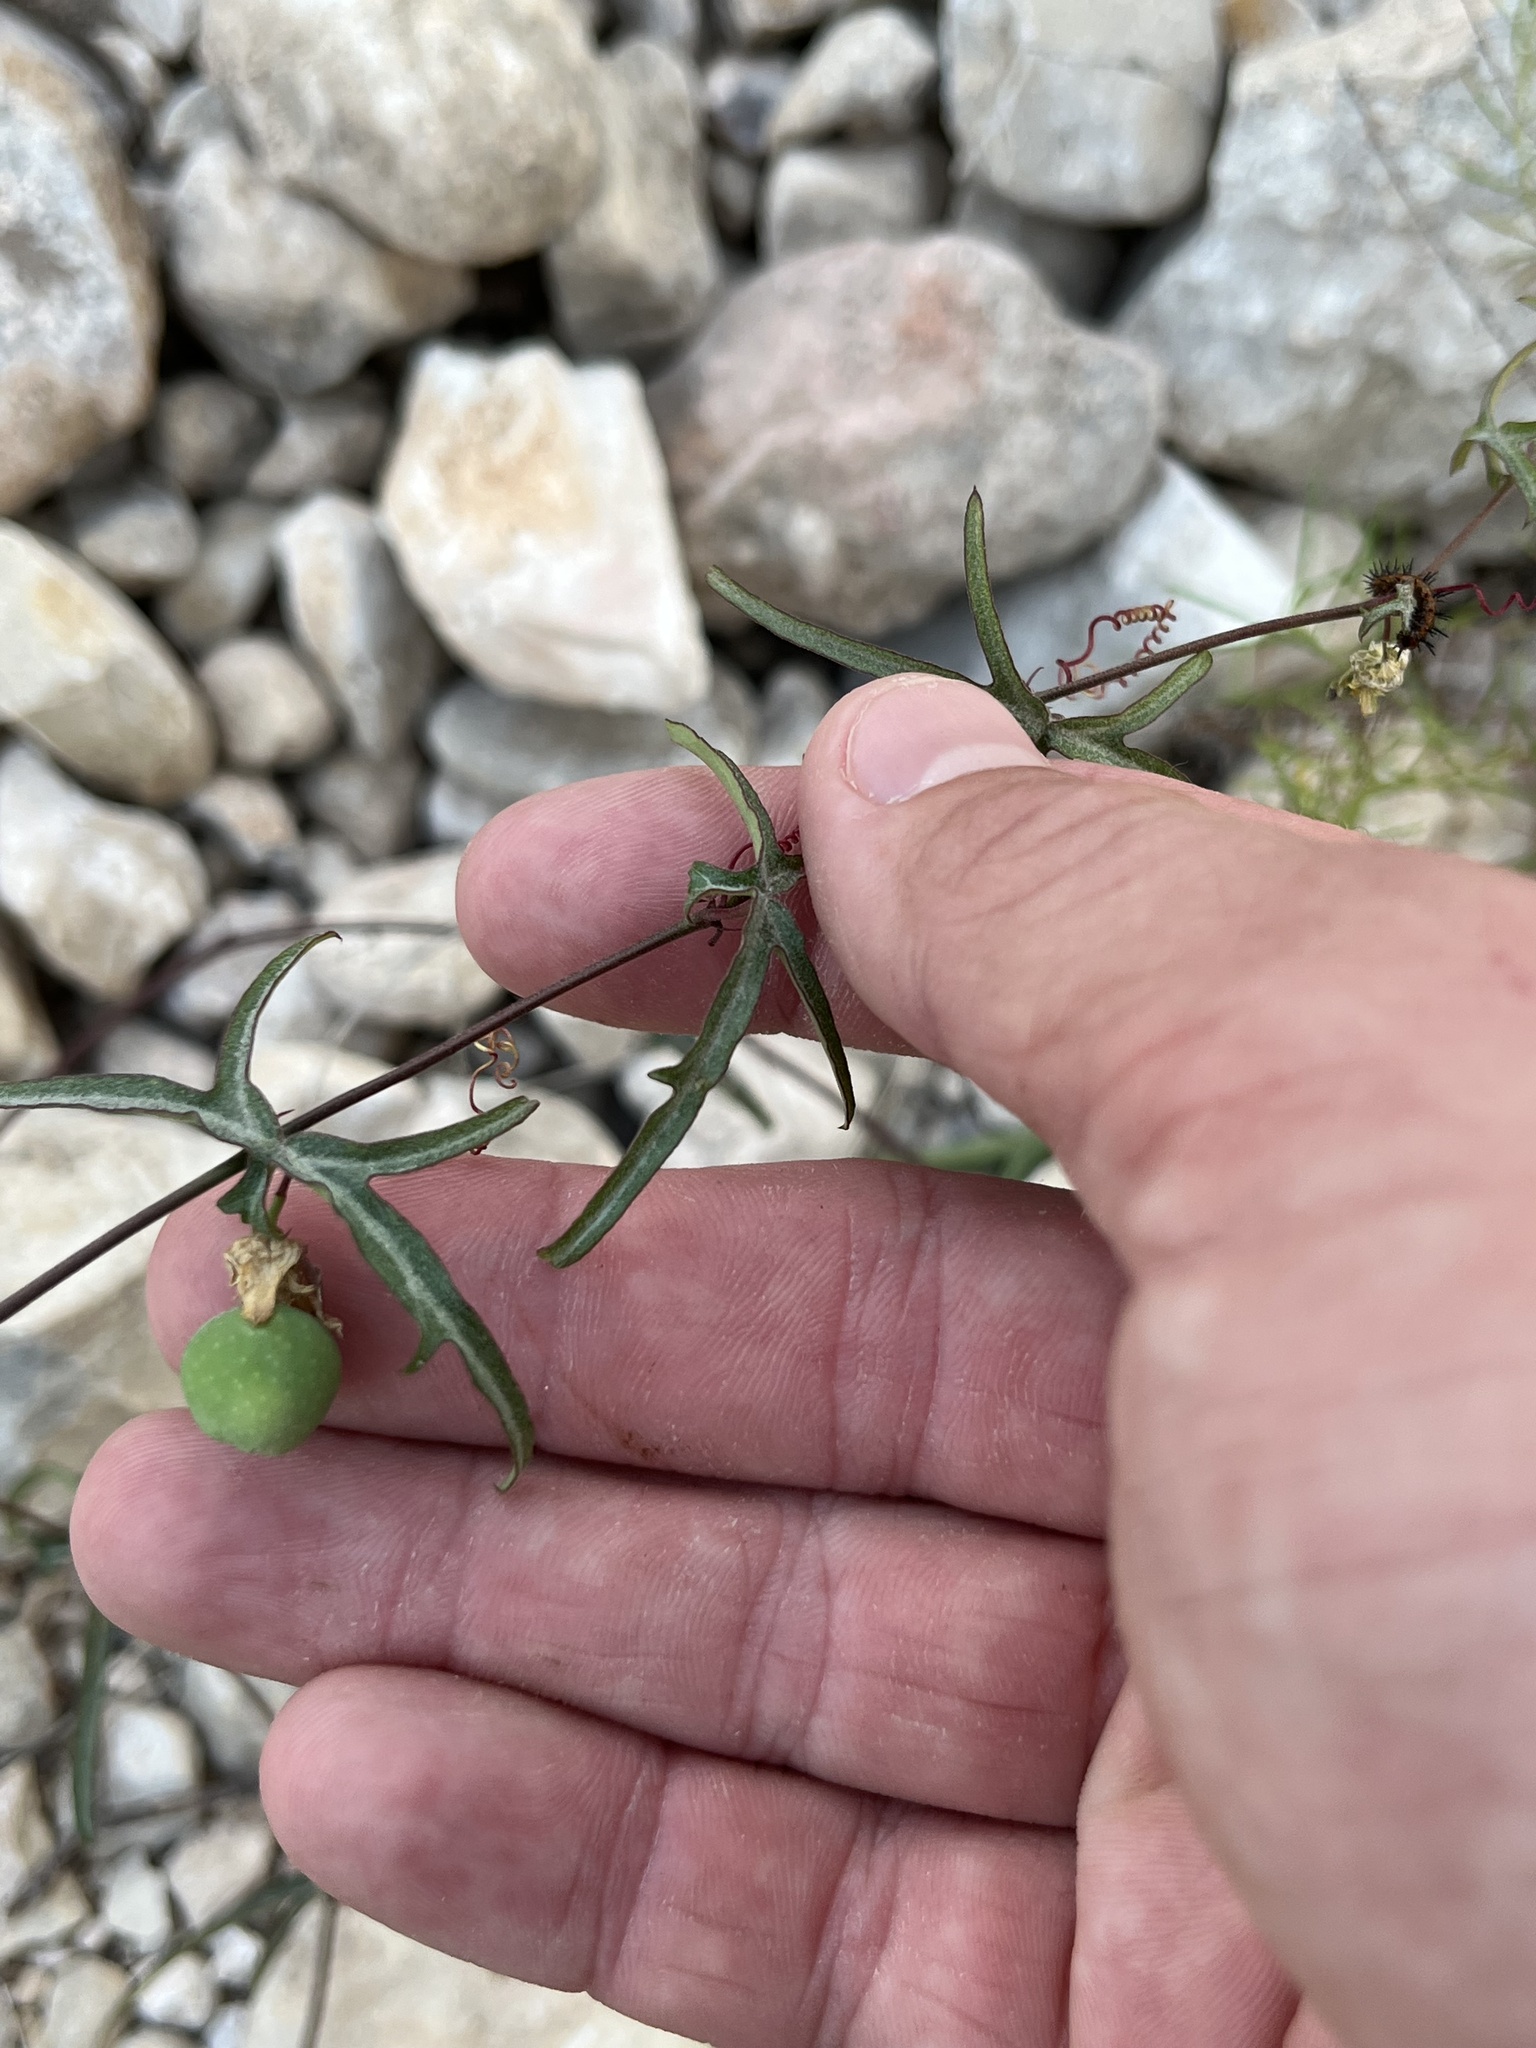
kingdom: Plantae
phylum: Tracheophyta
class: Magnoliopsida
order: Malpighiales
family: Passifloraceae
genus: Passiflora
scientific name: Passiflora tenuiloba
